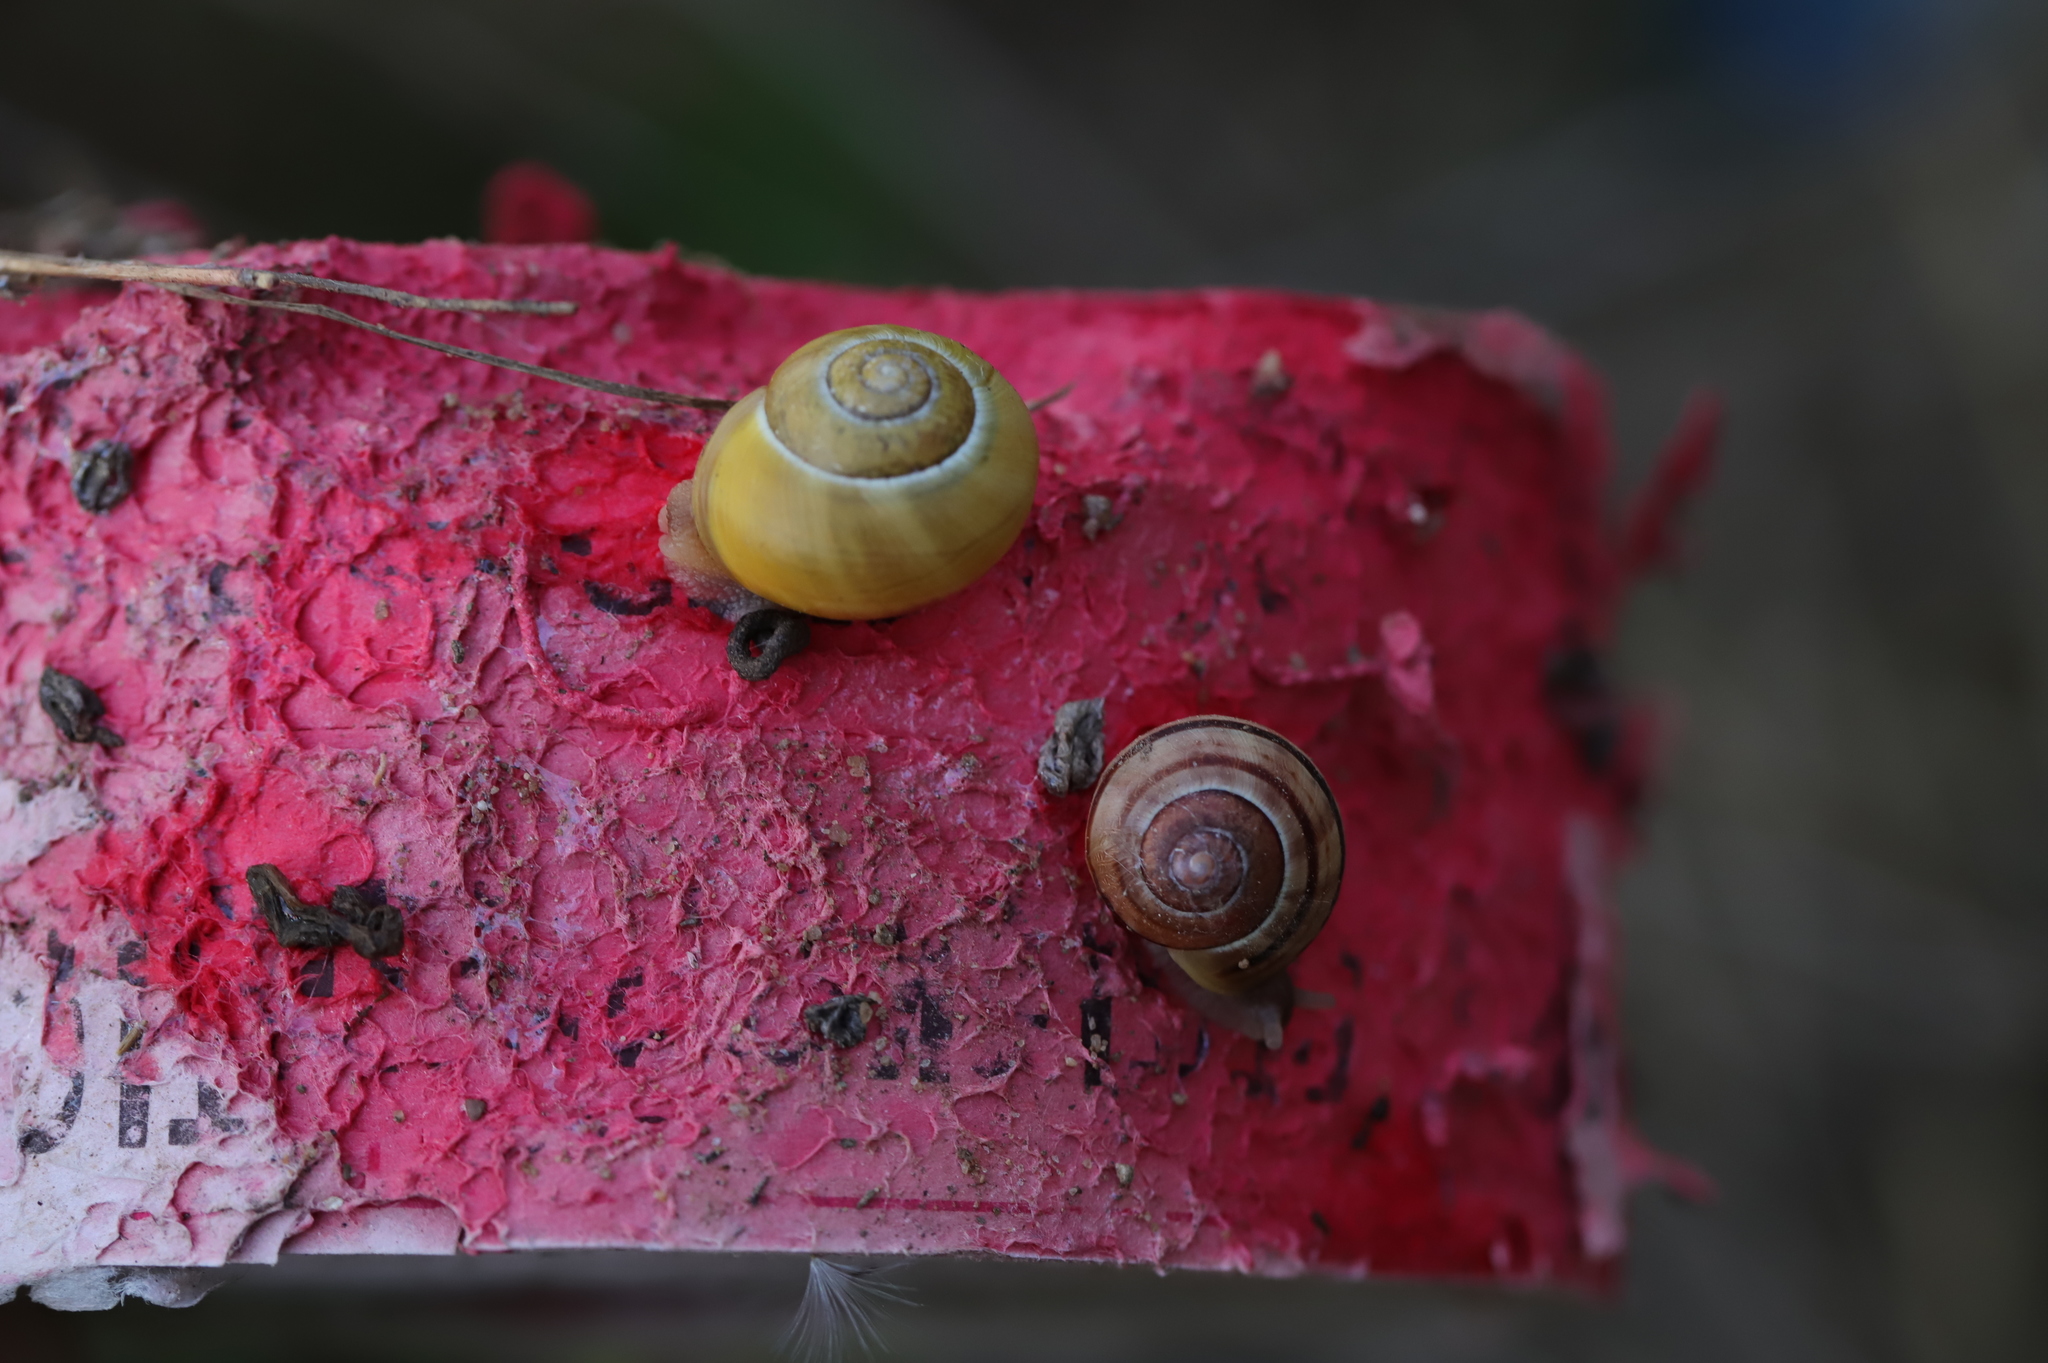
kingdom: Animalia
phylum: Mollusca
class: Gastropoda
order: Stylommatophora
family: Helicidae
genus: Cepaea
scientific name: Cepaea
